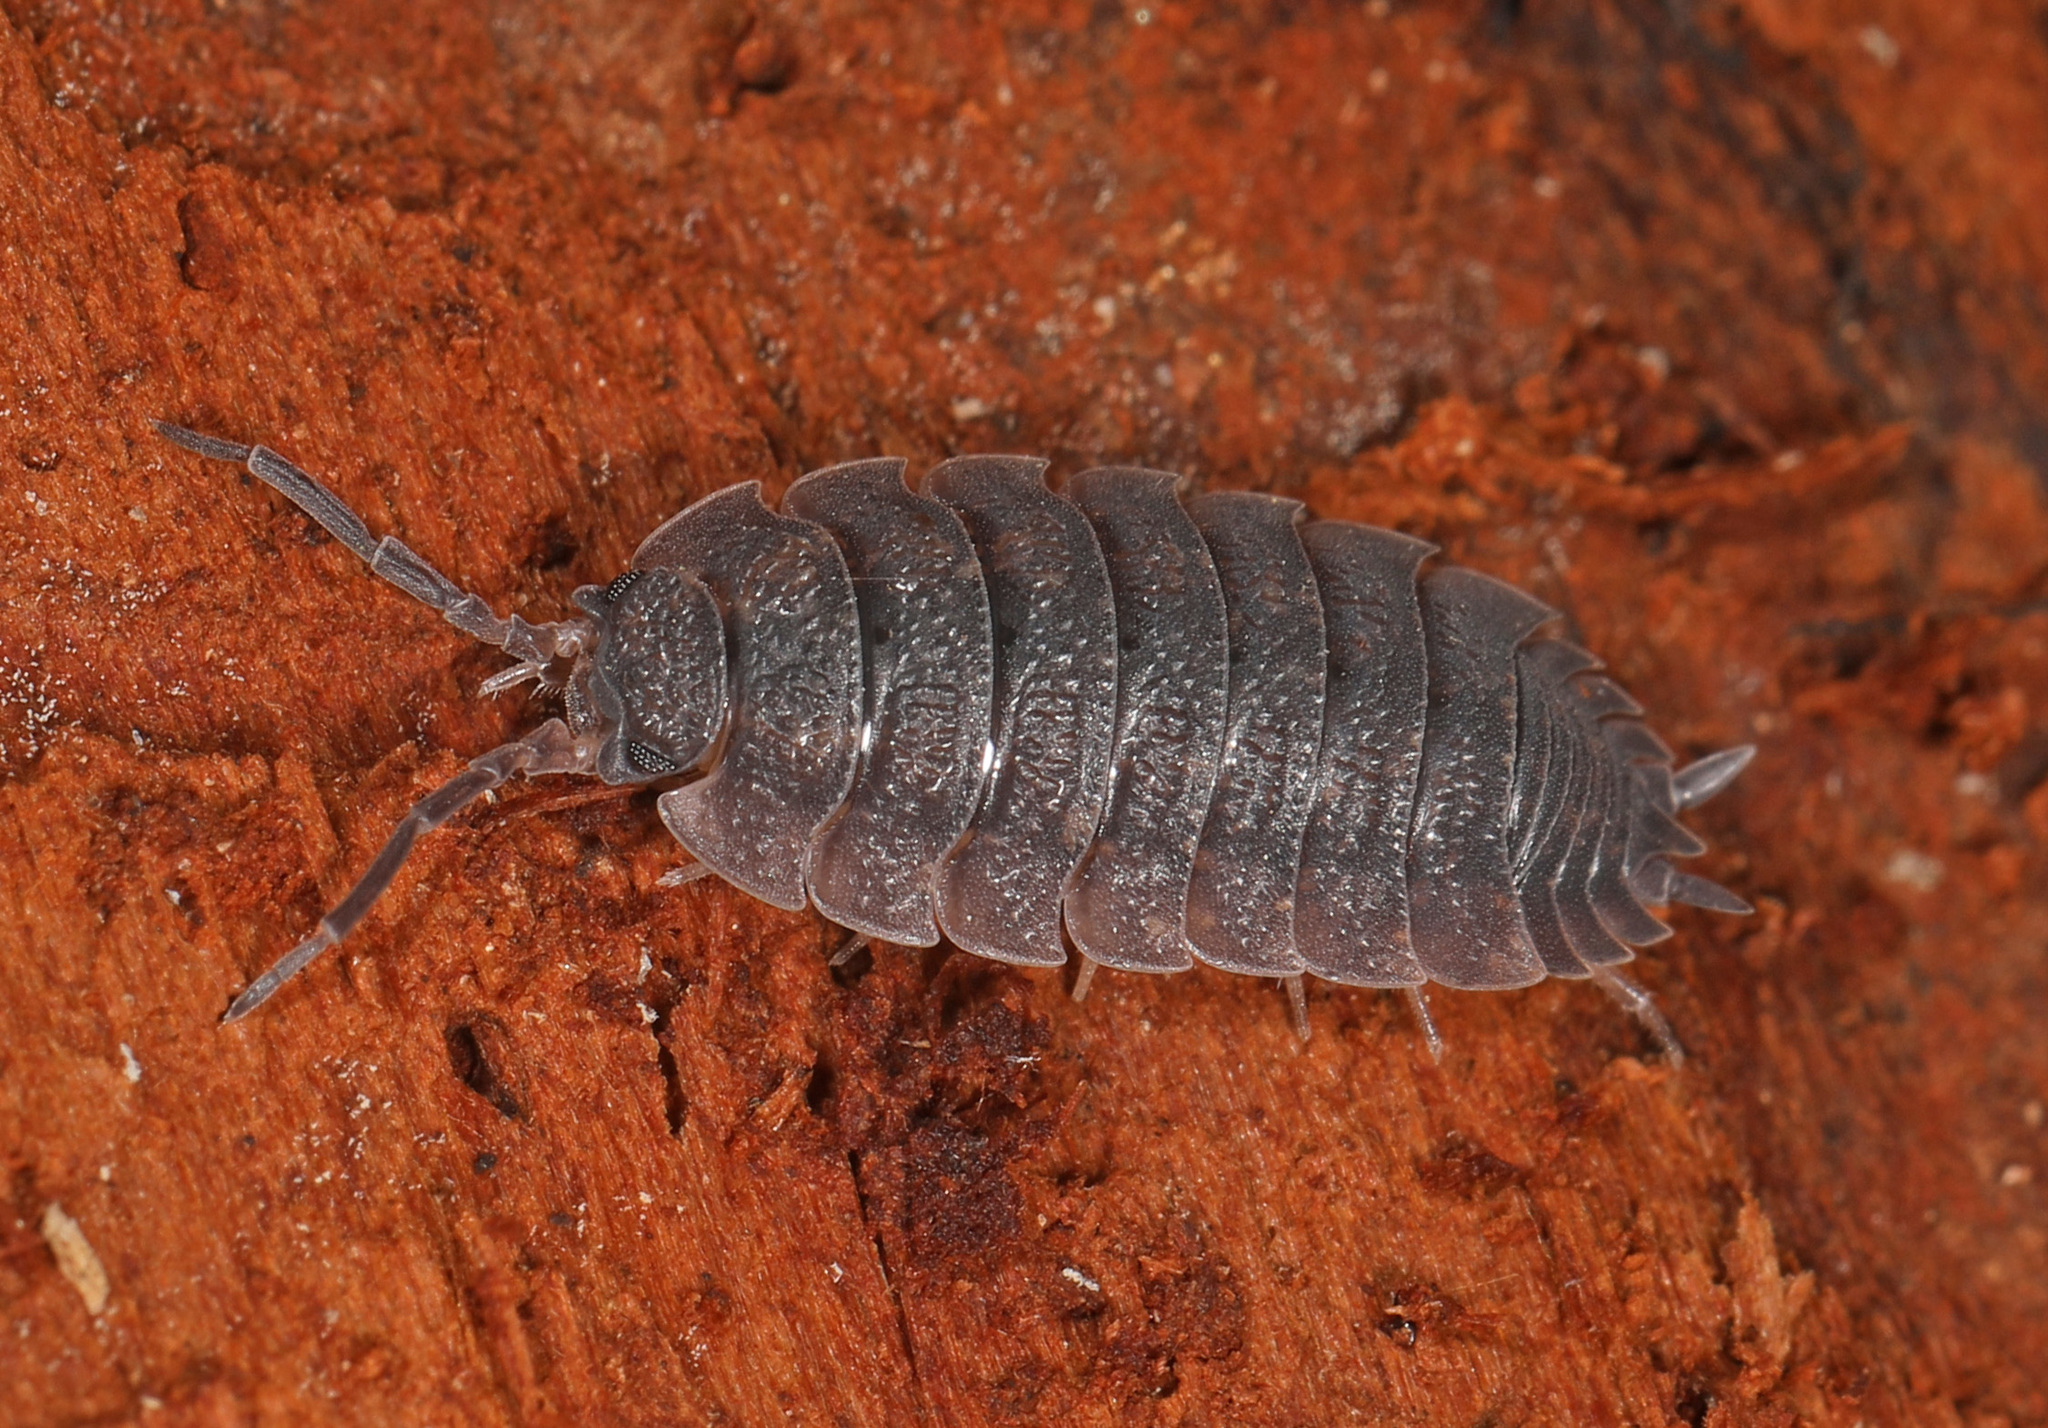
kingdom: Animalia
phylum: Arthropoda
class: Malacostraca
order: Isopoda
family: Porcellionidae
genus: Porcellio
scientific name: Porcellio scaber
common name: Common rough woodlouse
